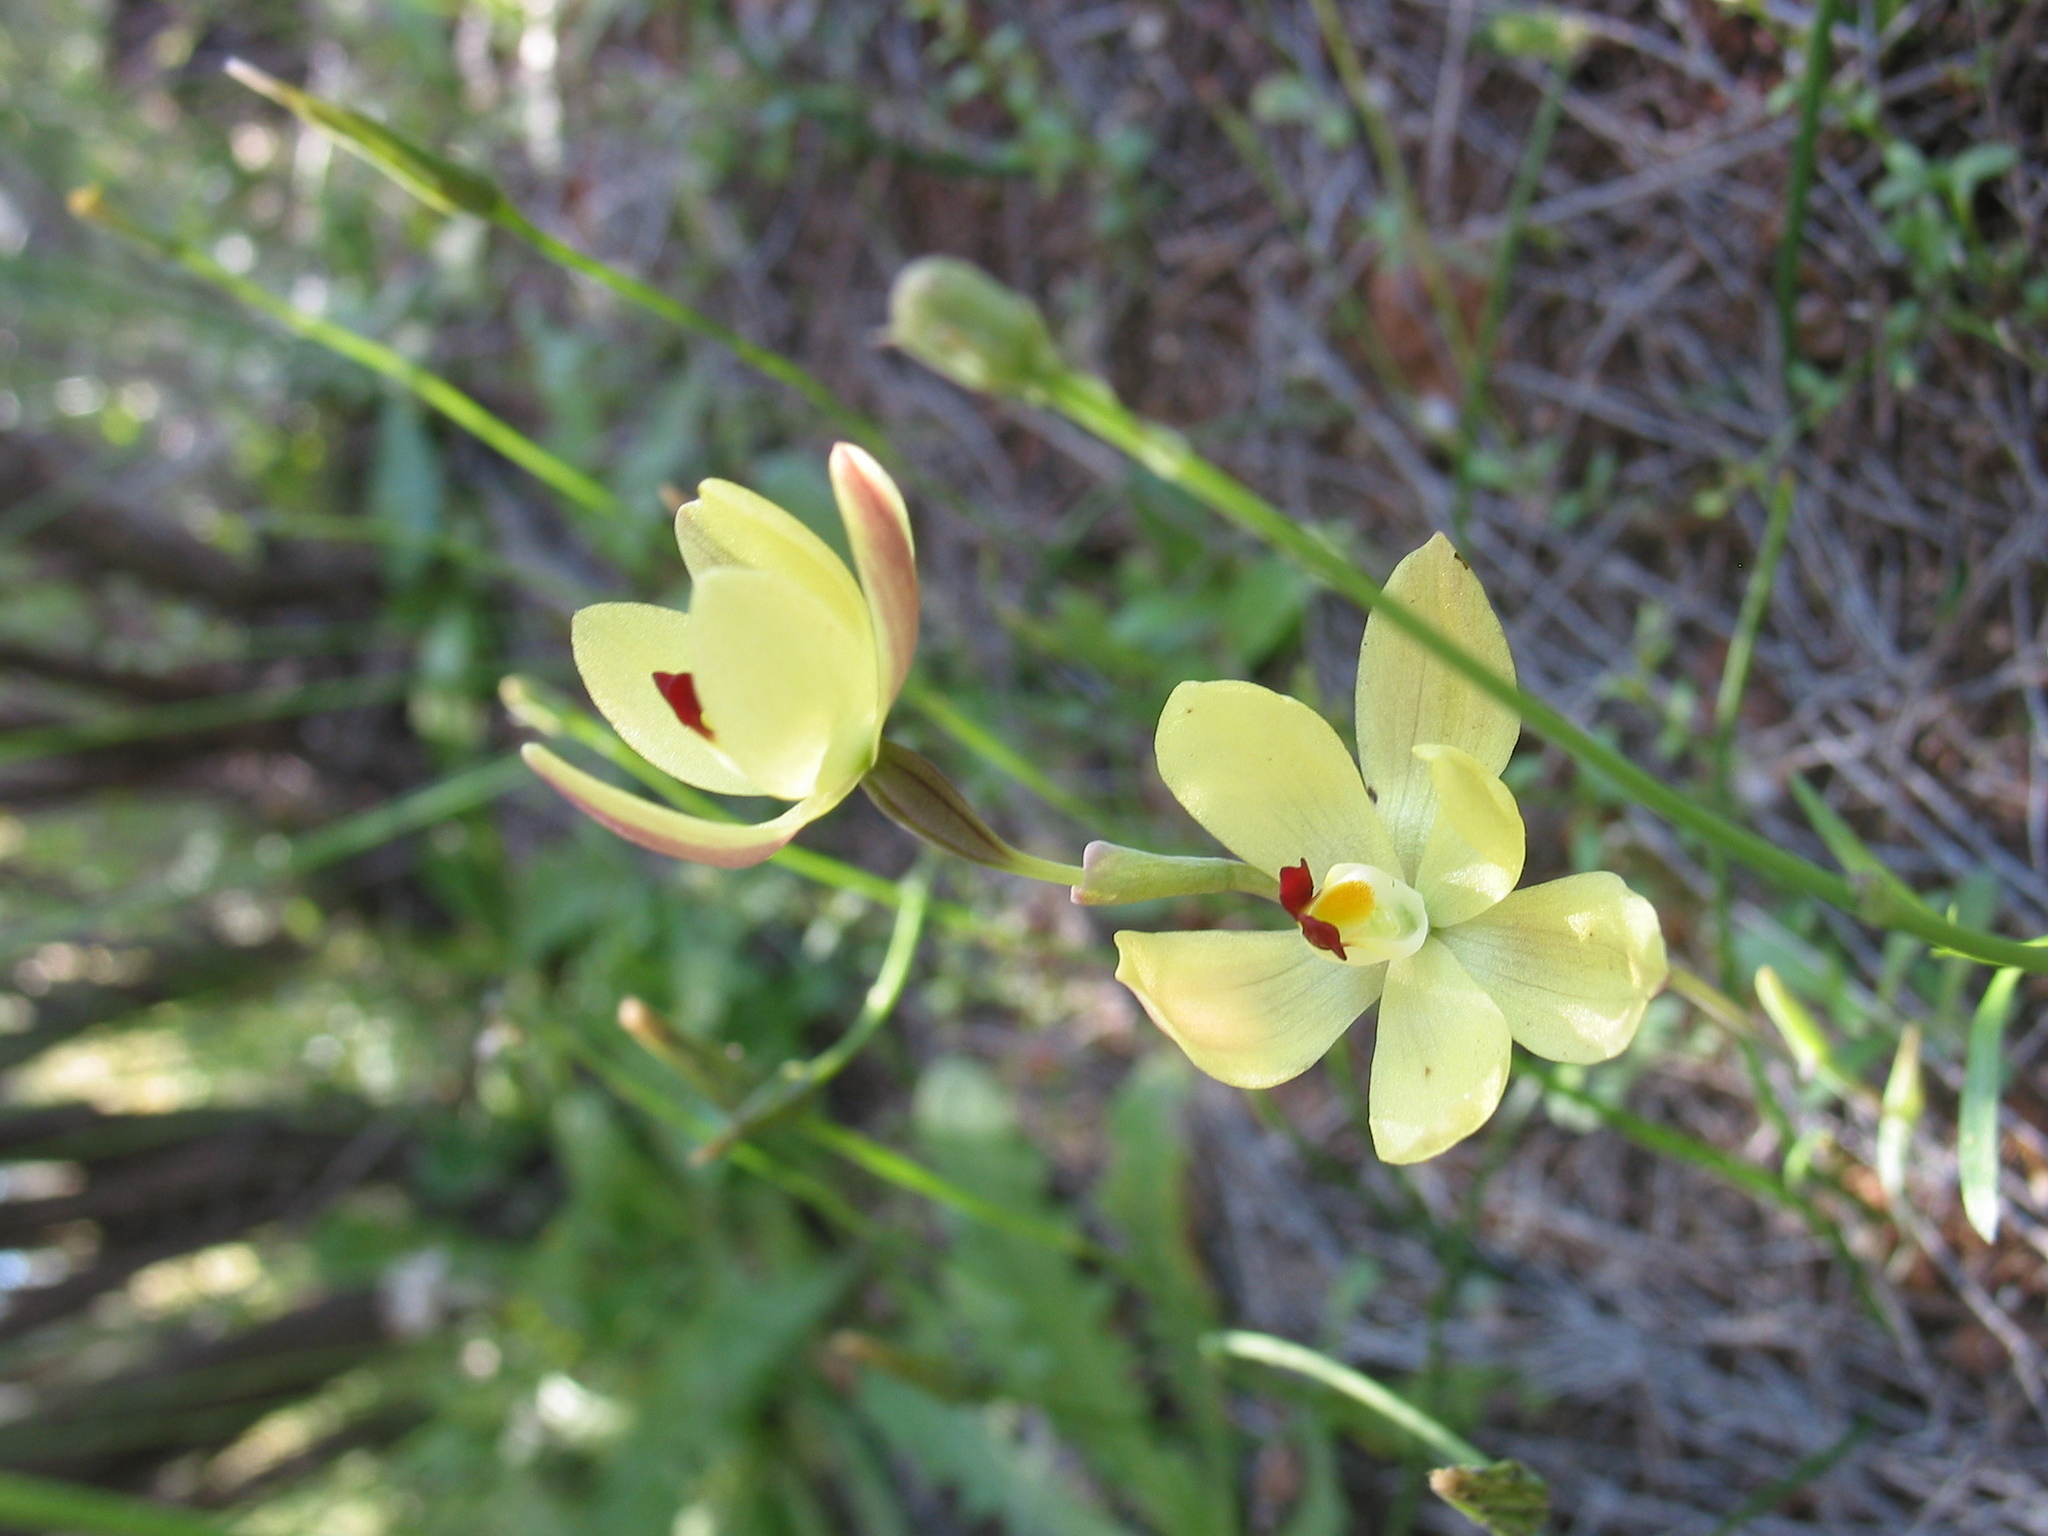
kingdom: Plantae
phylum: Tracheophyta
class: Liliopsida
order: Asparagales
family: Orchidaceae
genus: Thelymitra
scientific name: Thelymitra antennifera
